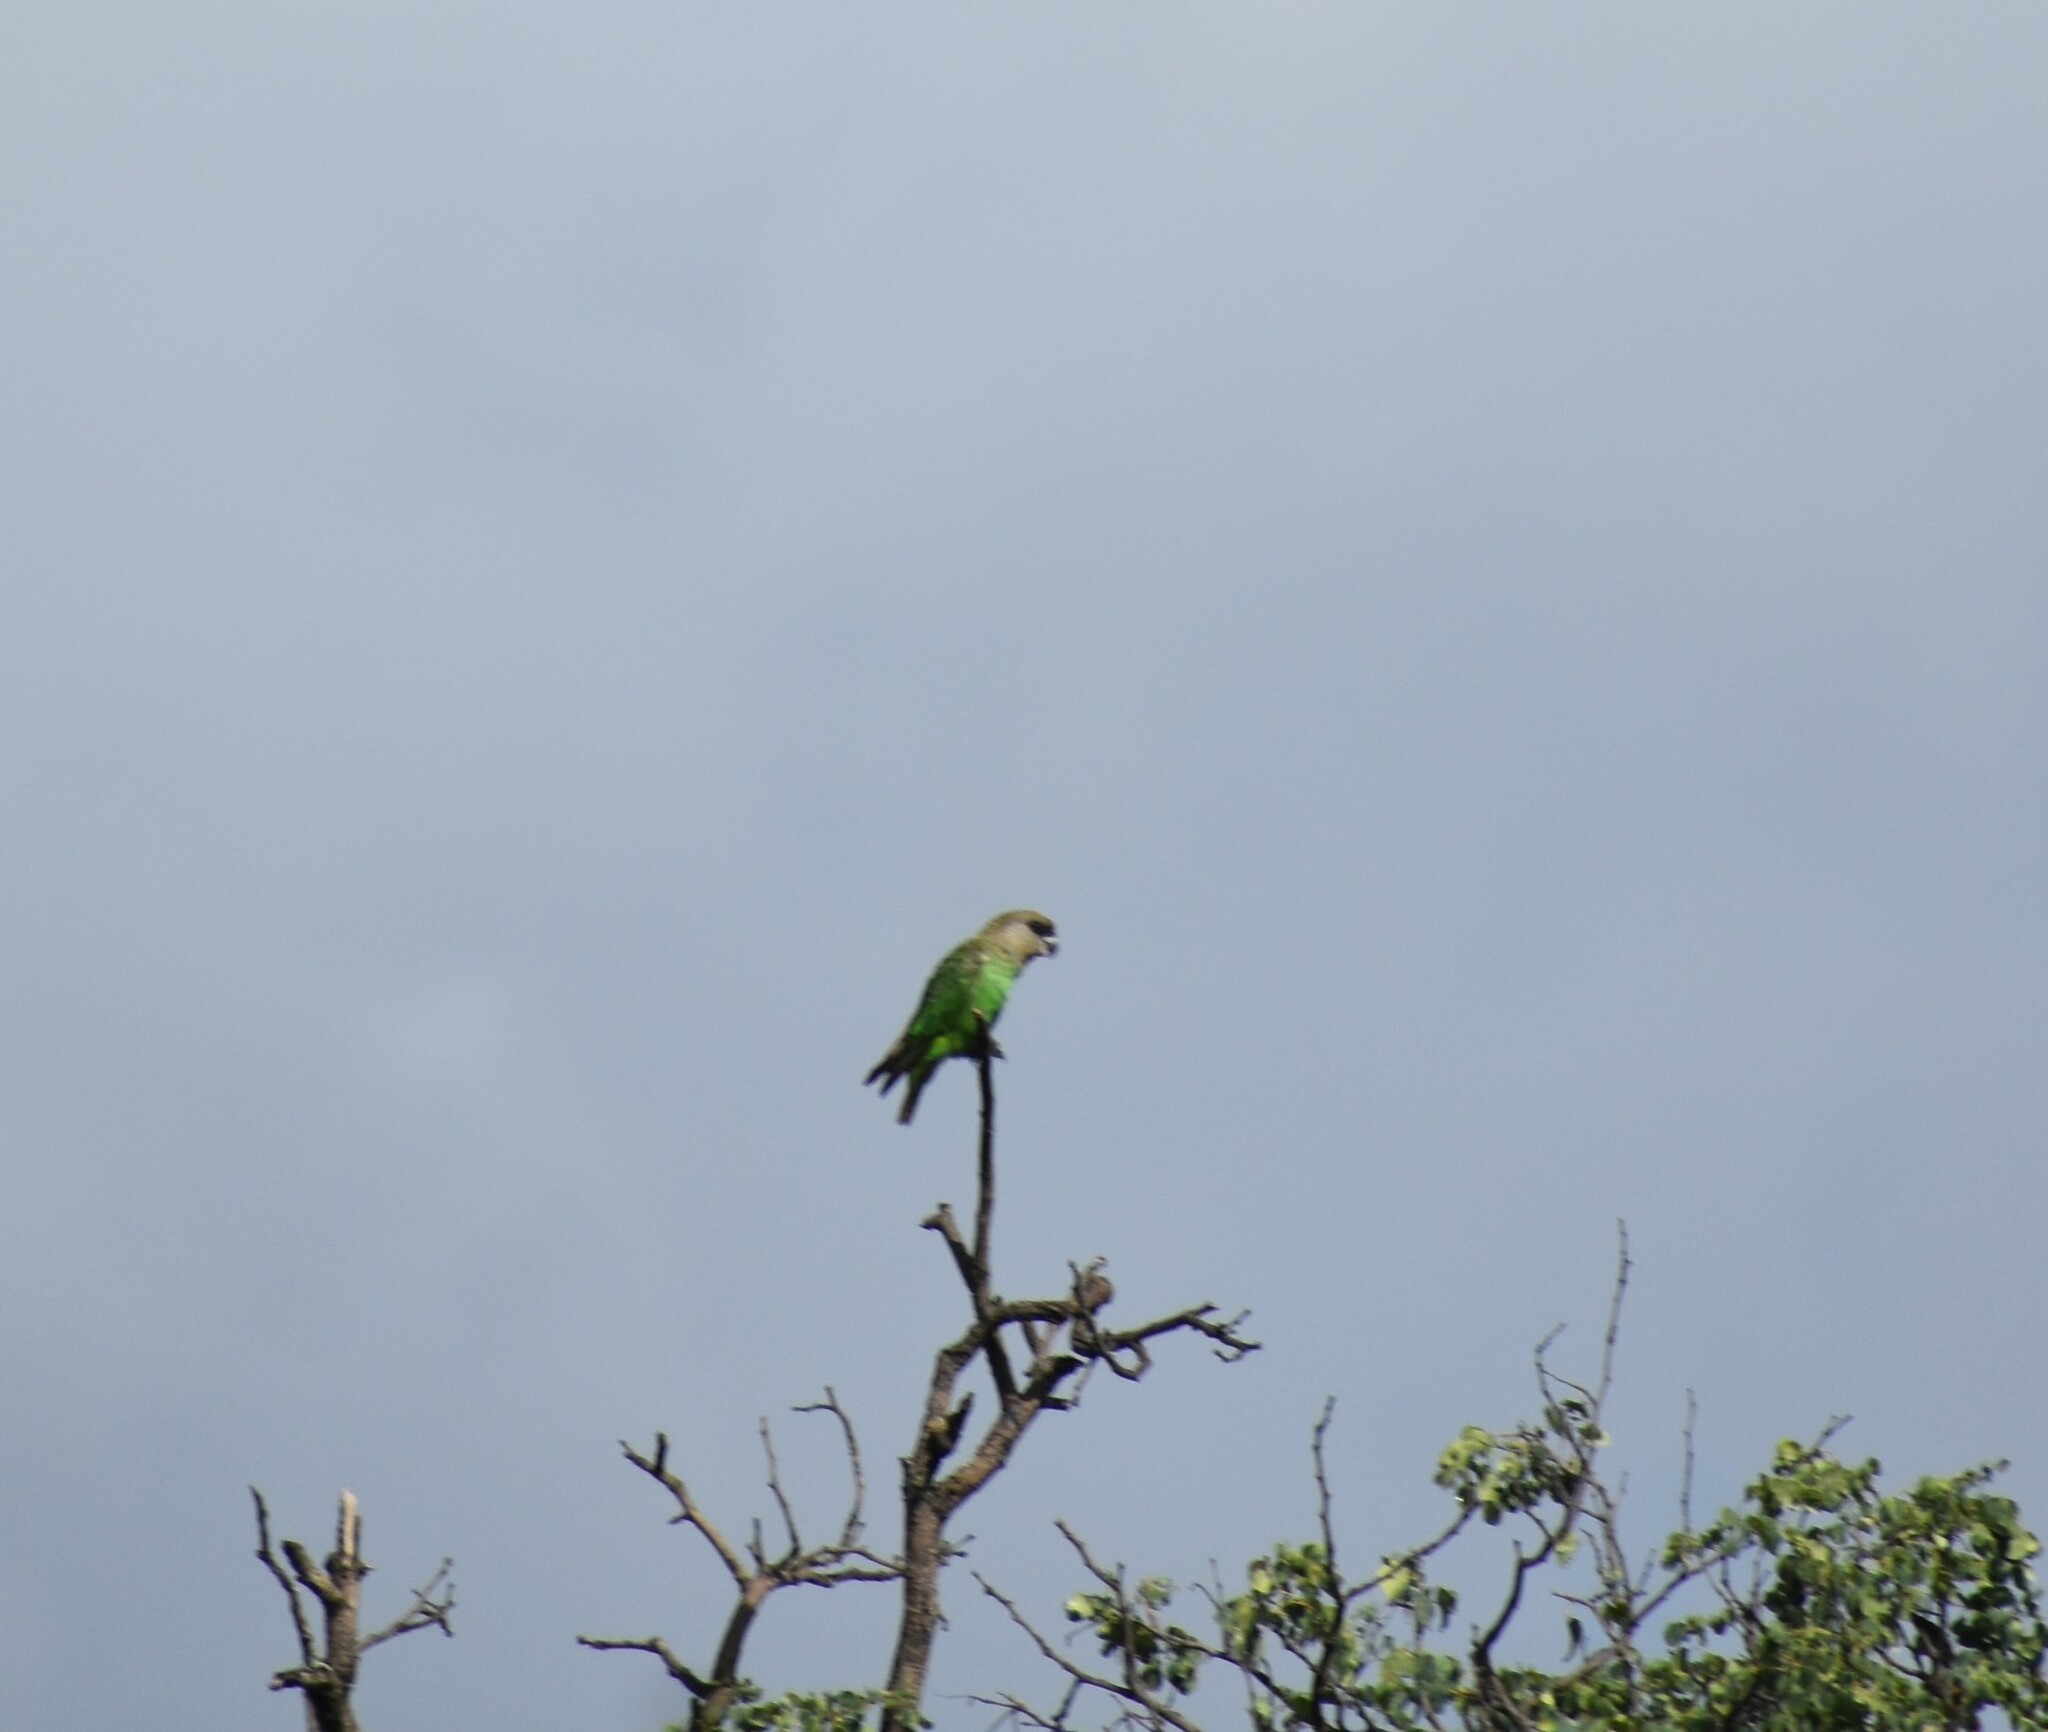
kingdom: Animalia
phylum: Chordata
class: Aves
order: Psittaciformes
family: Psittacidae
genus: Poicephalus
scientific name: Poicephalus cryptoxanthus
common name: Brown-headed parrot
